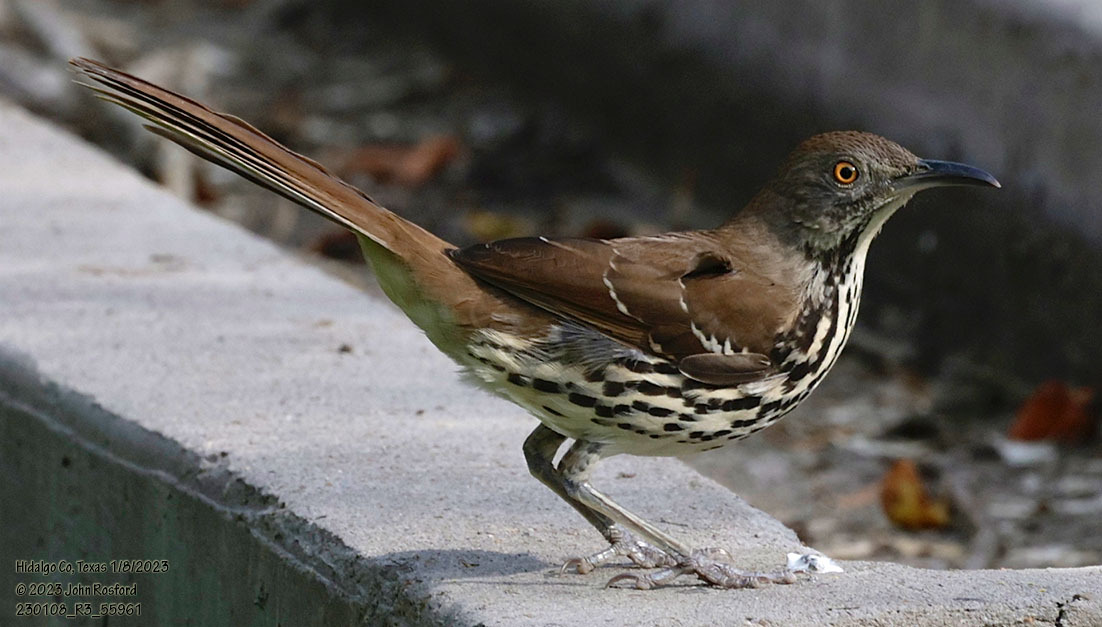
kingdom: Animalia
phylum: Chordata
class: Aves
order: Passeriformes
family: Mimidae
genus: Toxostoma
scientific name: Toxostoma longirostre
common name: Long-billed thrasher
